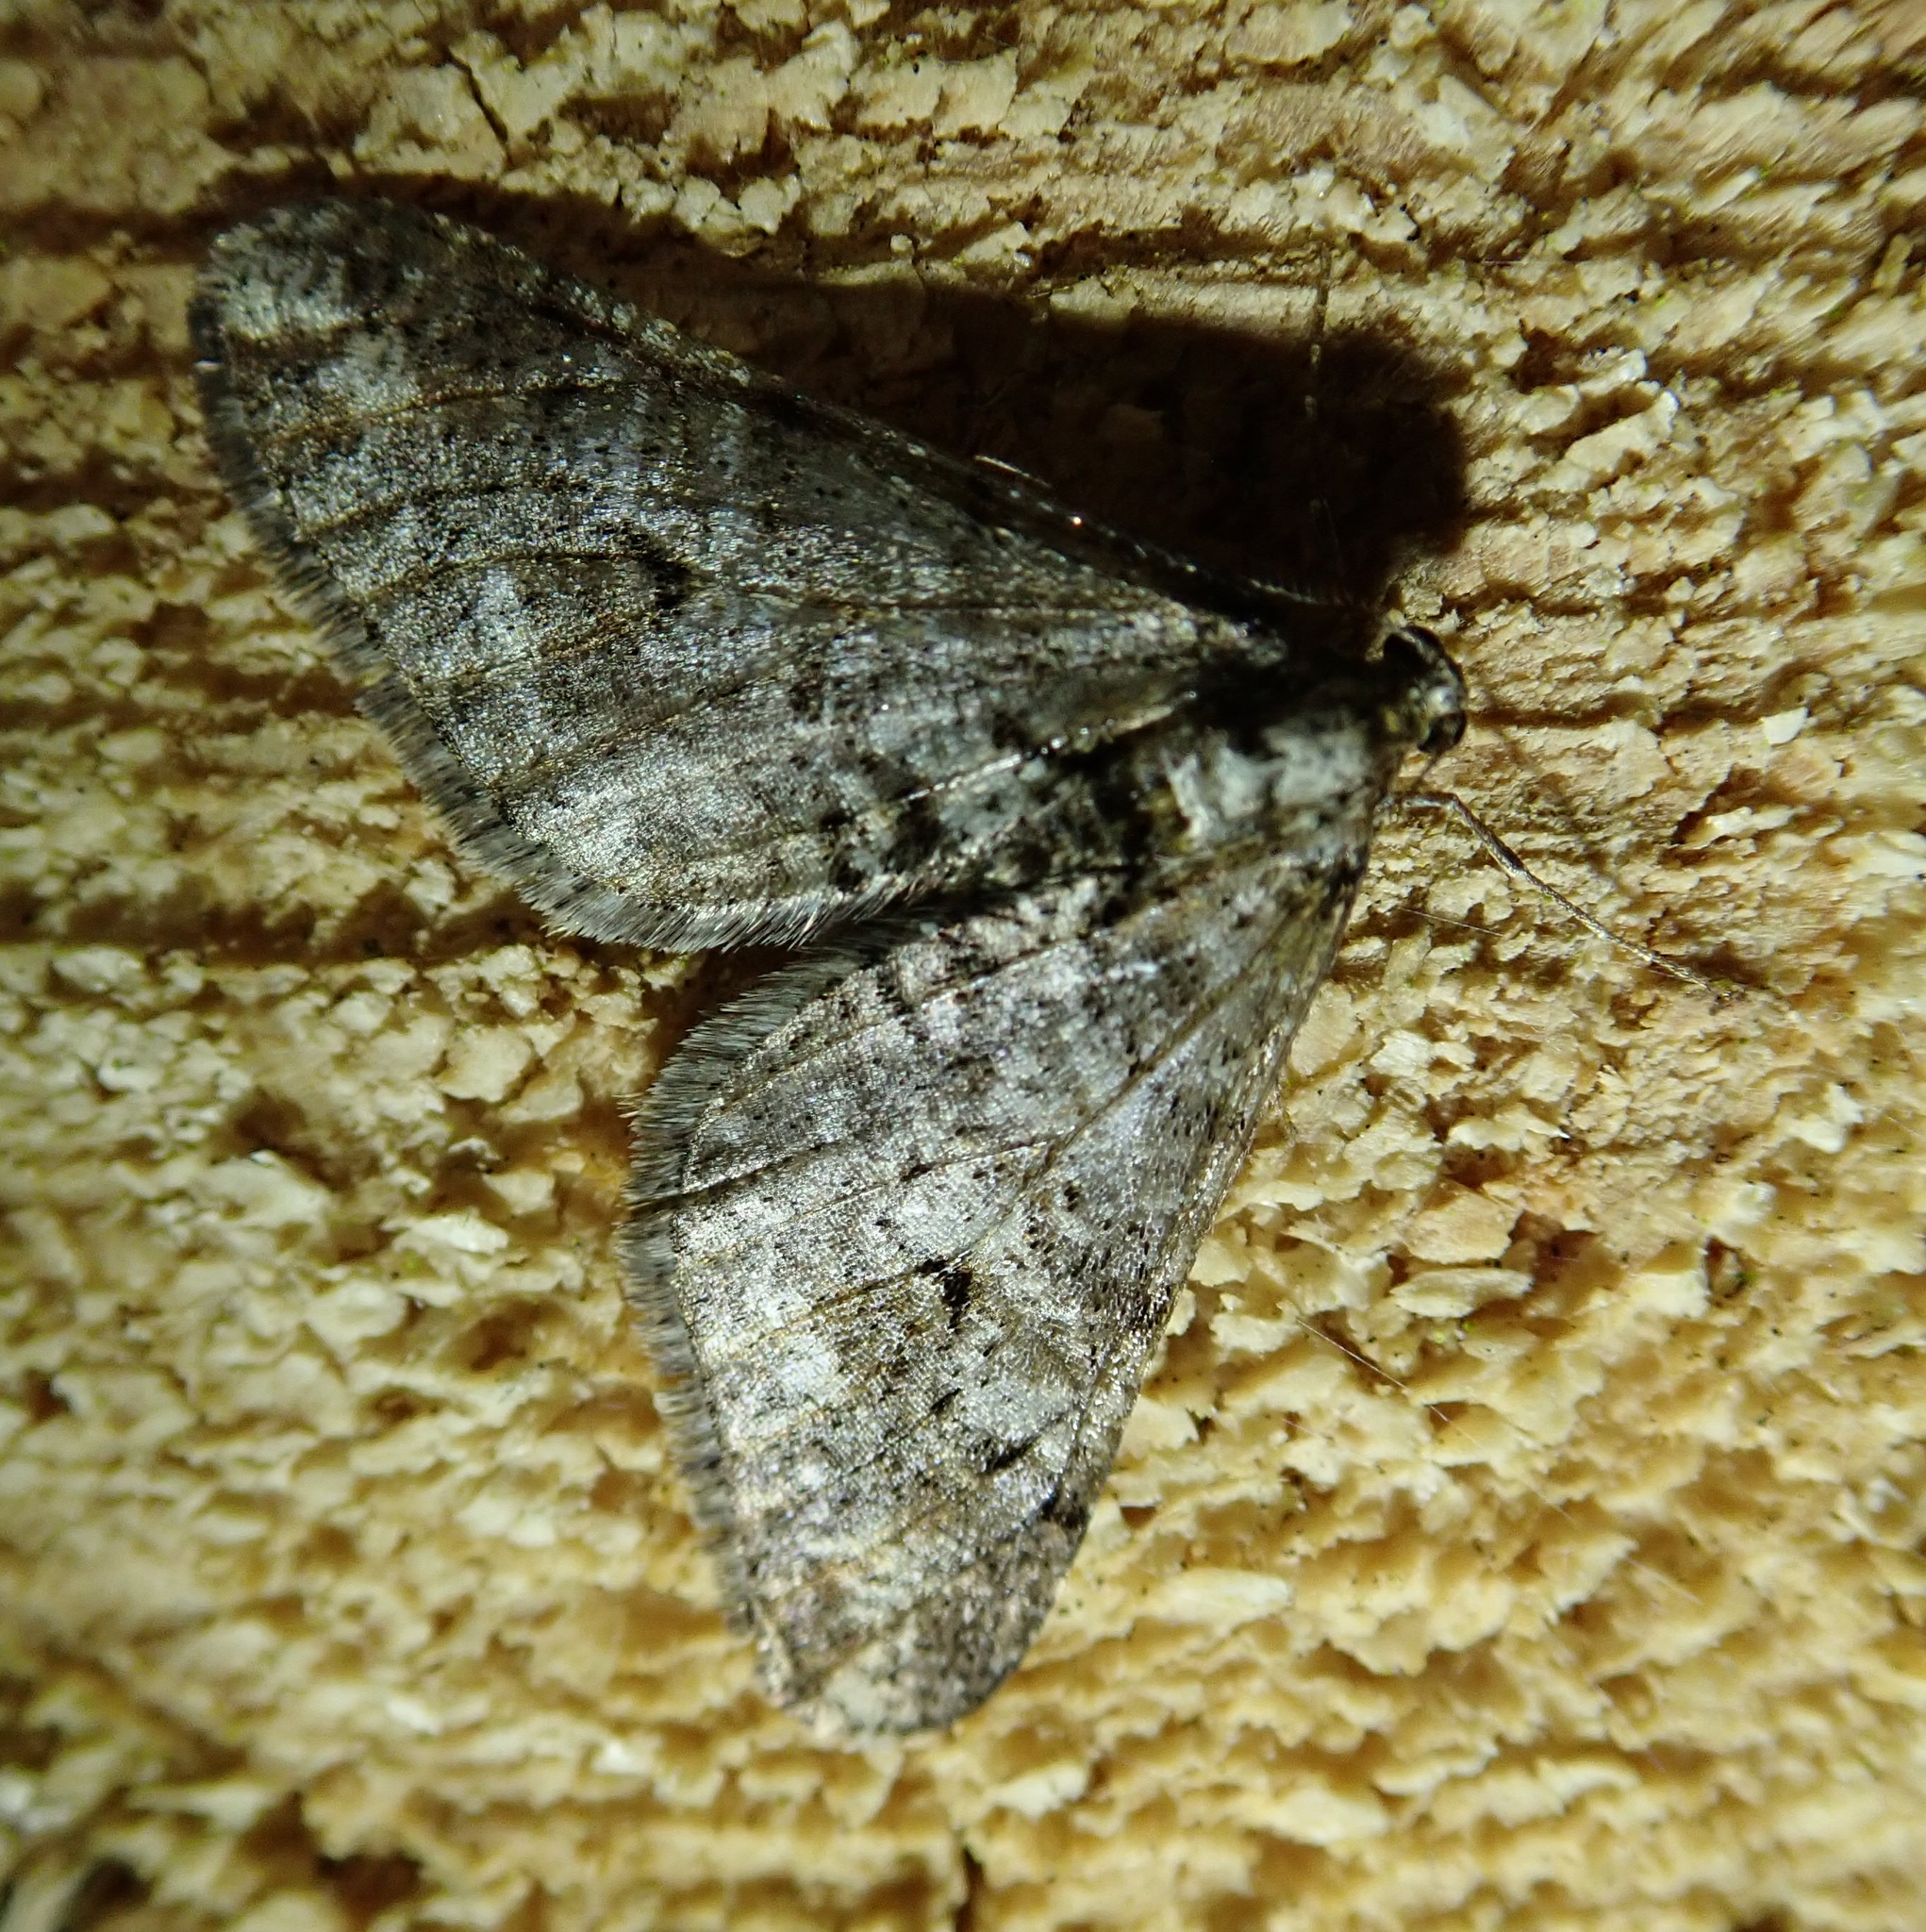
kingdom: Animalia
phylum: Arthropoda
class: Insecta
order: Lepidoptera
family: Geometridae
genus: Agriopis
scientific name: Agriopis leucophaearia
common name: Spring usher
